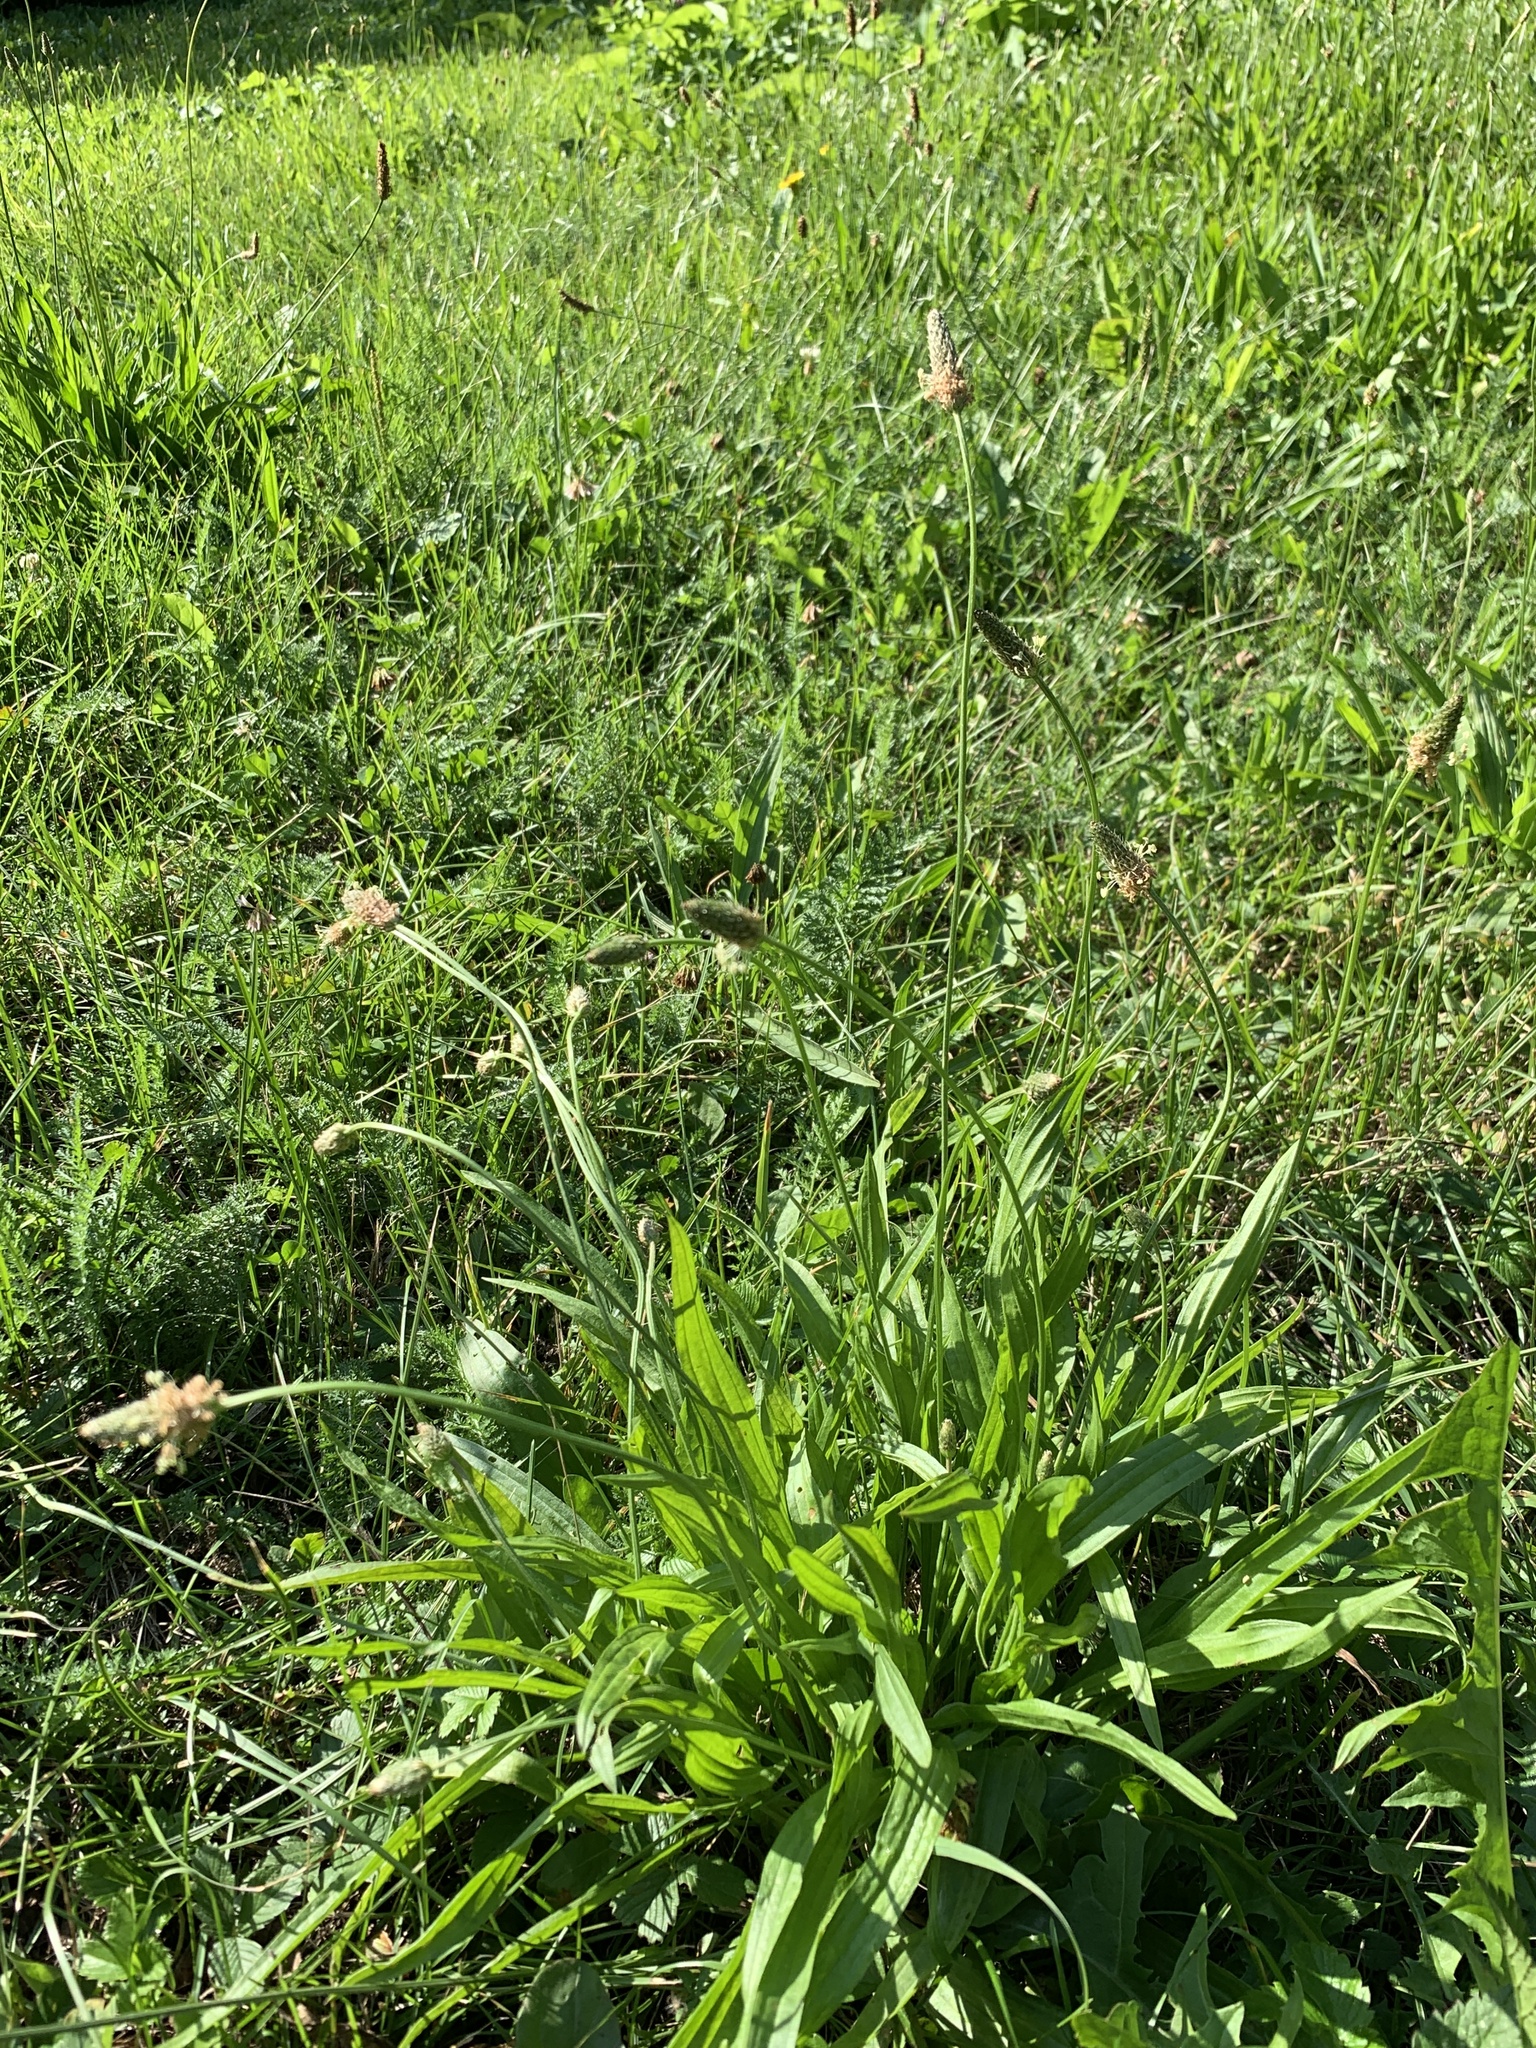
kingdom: Plantae
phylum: Tracheophyta
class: Magnoliopsida
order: Lamiales
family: Plantaginaceae
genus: Plantago
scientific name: Plantago lanceolata
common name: Ribwort plantain
